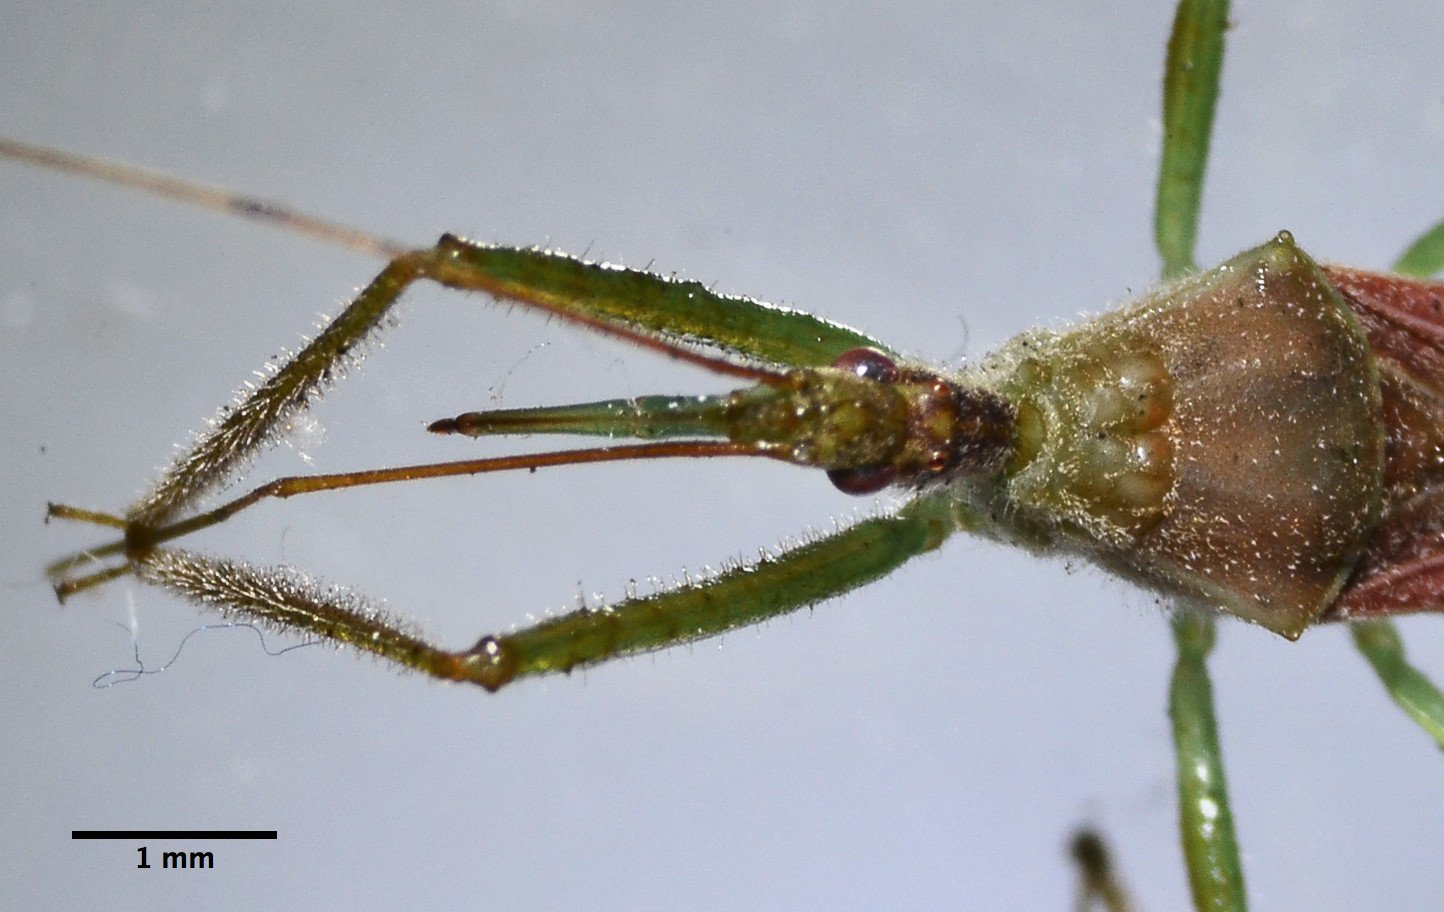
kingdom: Animalia
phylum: Arthropoda
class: Insecta
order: Hemiptera
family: Reduviidae
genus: Zelus
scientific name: Zelus renardii
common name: Assassin bug
